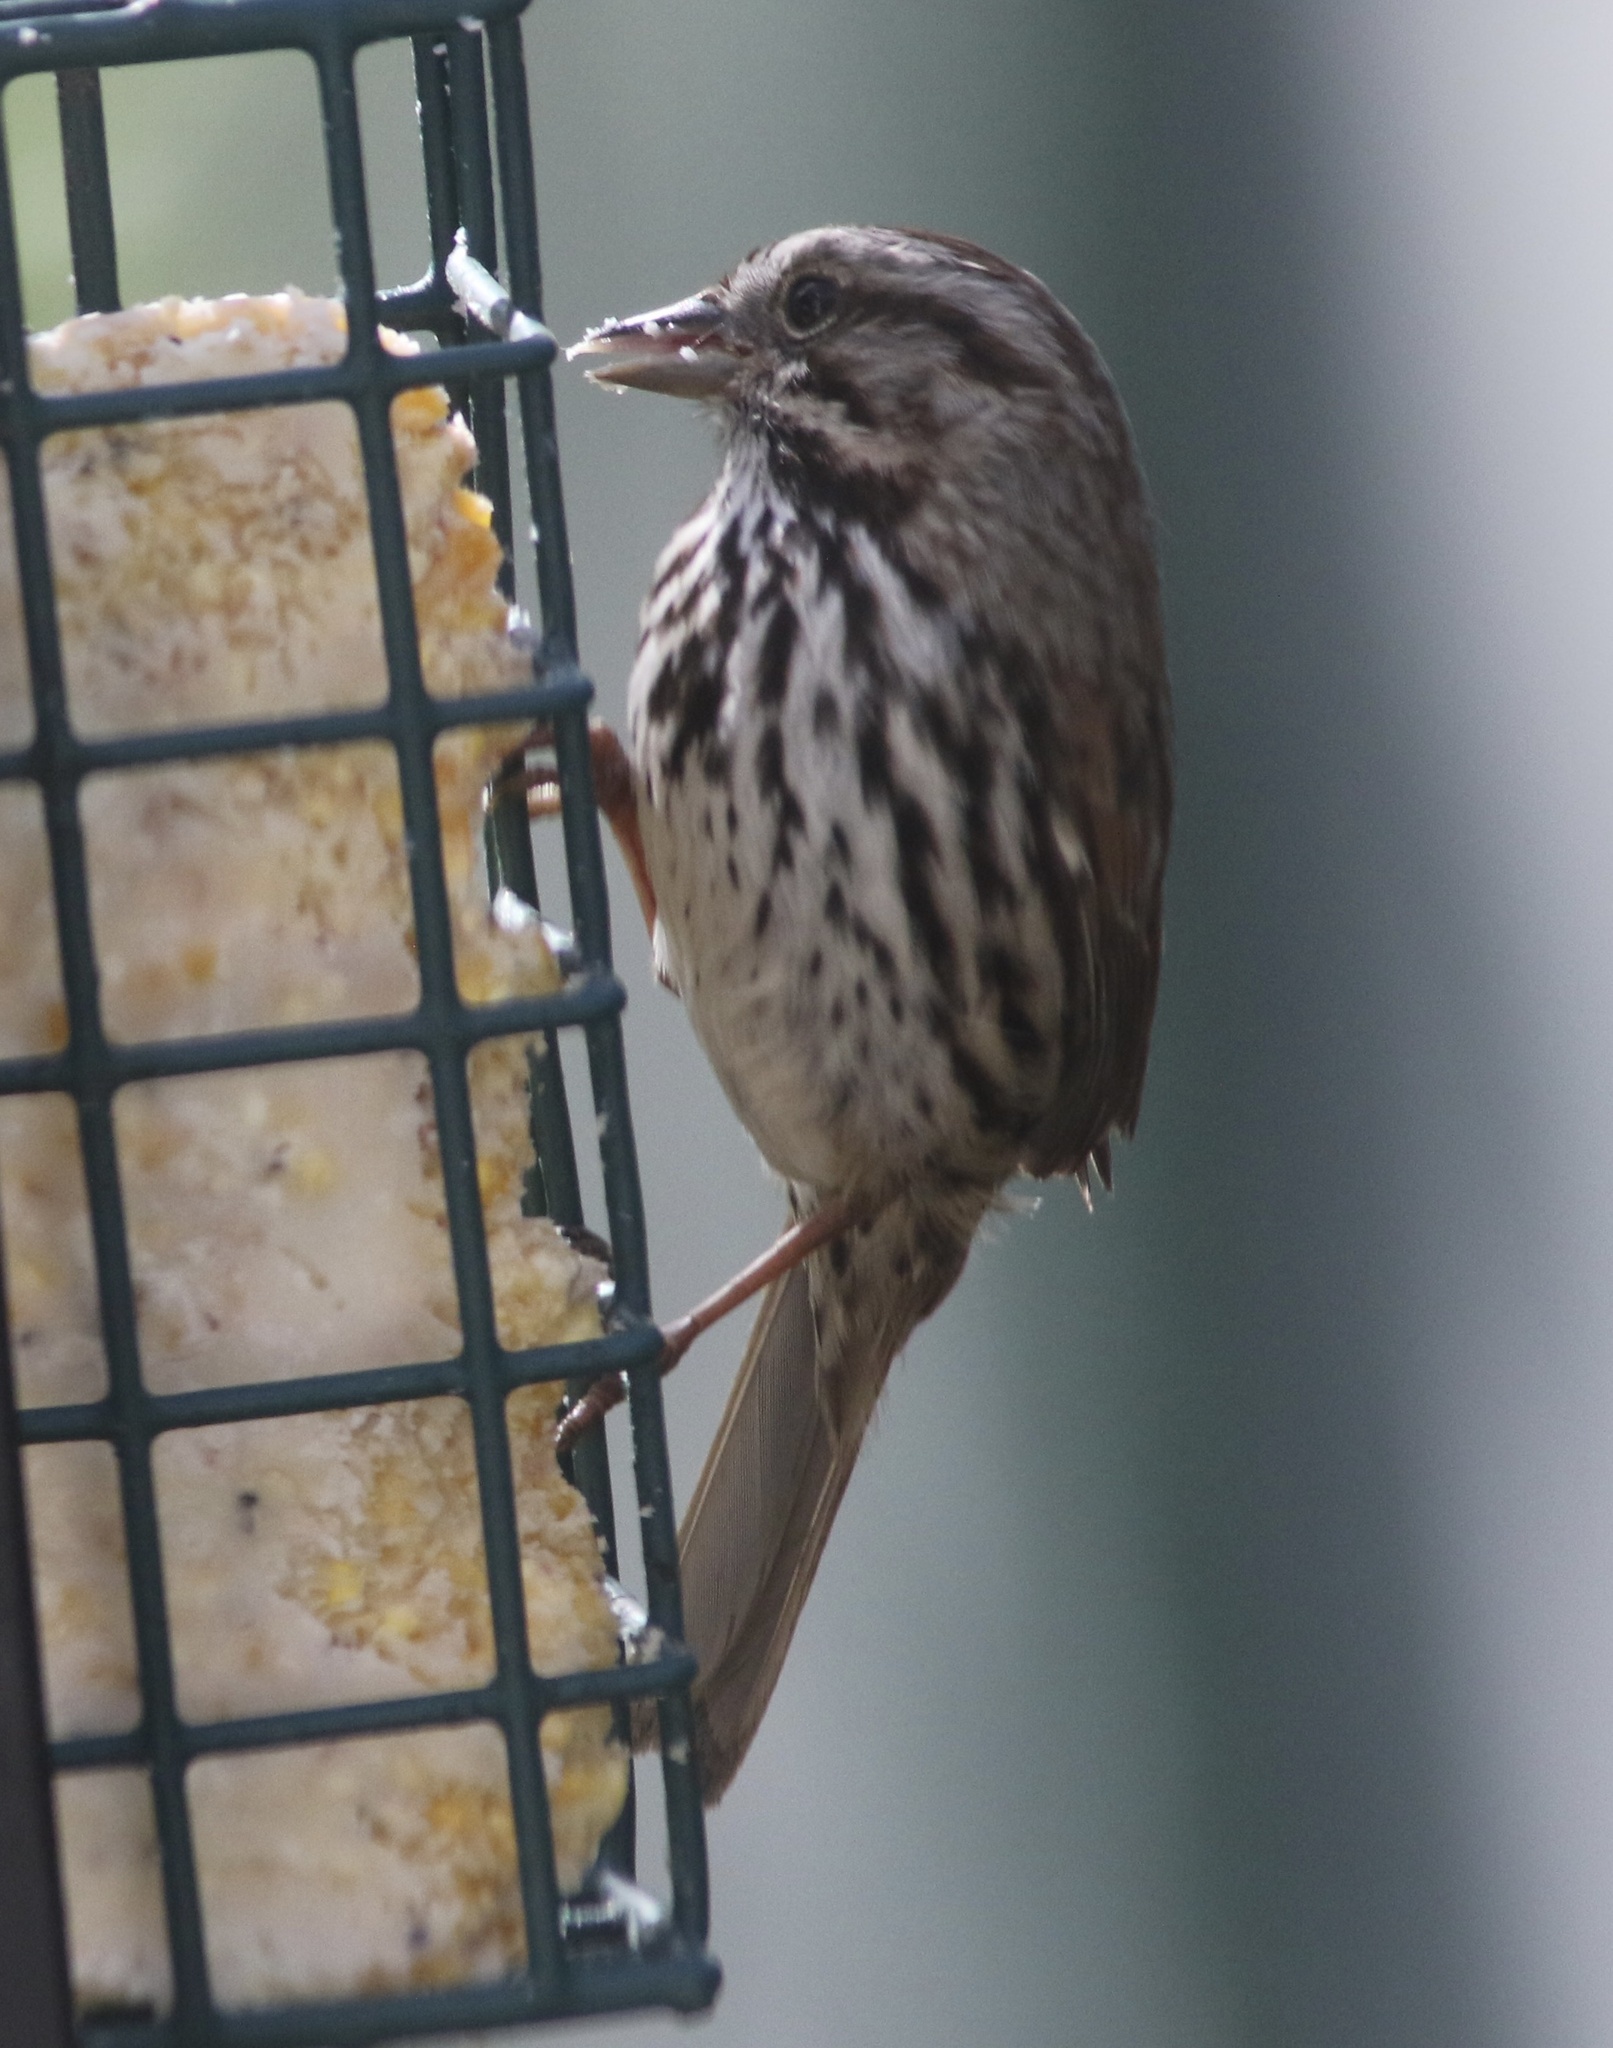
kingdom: Animalia
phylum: Chordata
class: Aves
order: Passeriformes
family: Passerellidae
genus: Melospiza
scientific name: Melospiza melodia
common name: Song sparrow
